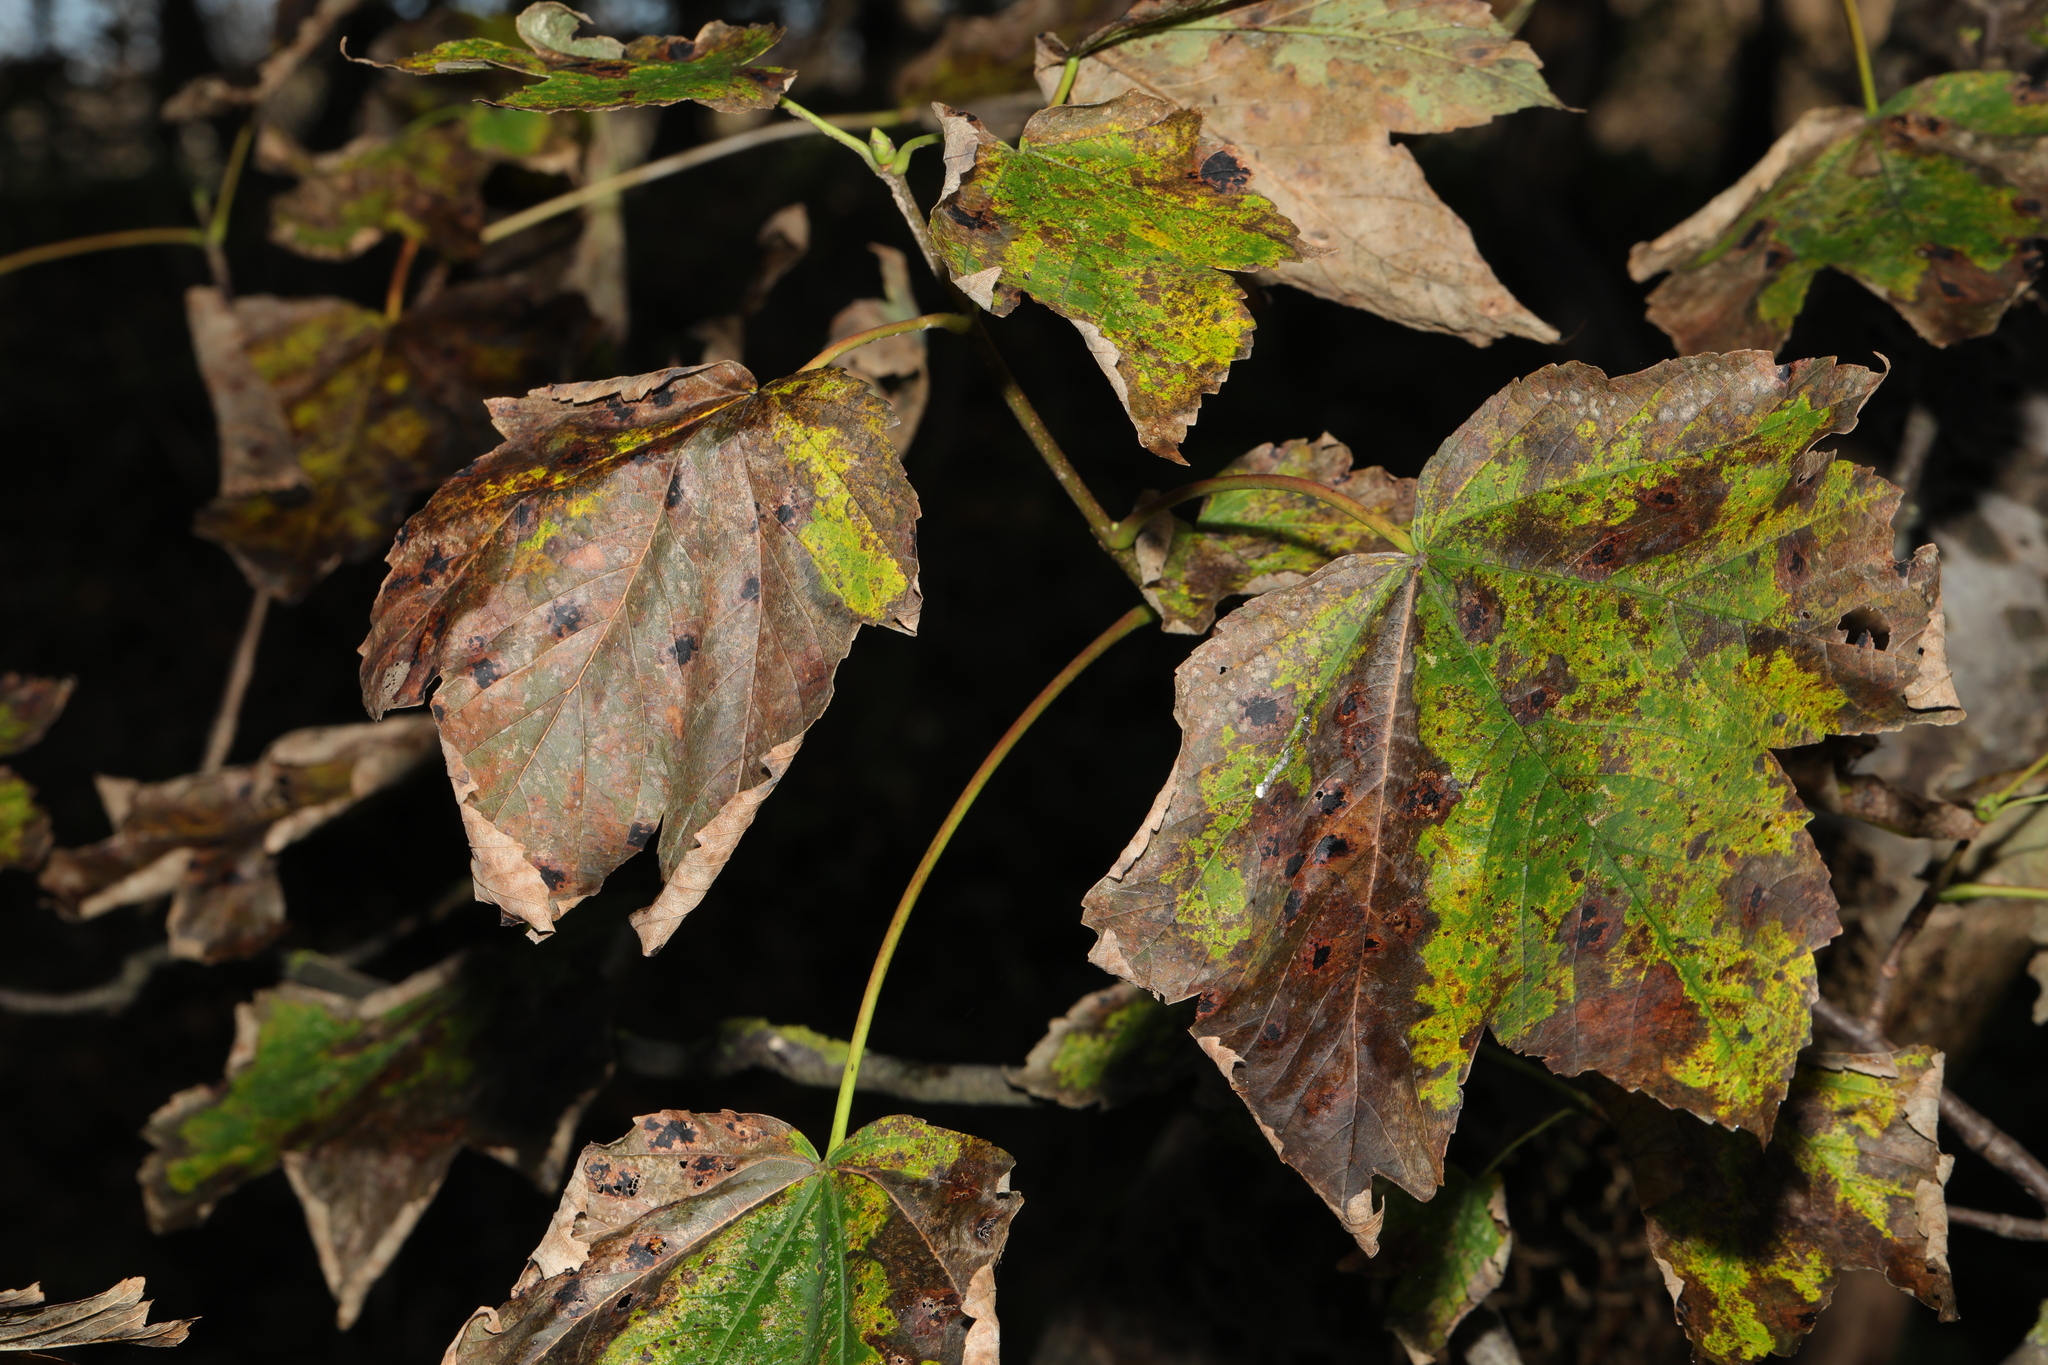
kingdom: Plantae
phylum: Tracheophyta
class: Magnoliopsida
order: Sapindales
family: Sapindaceae
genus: Acer
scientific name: Acer pseudoplatanus
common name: Sycamore
